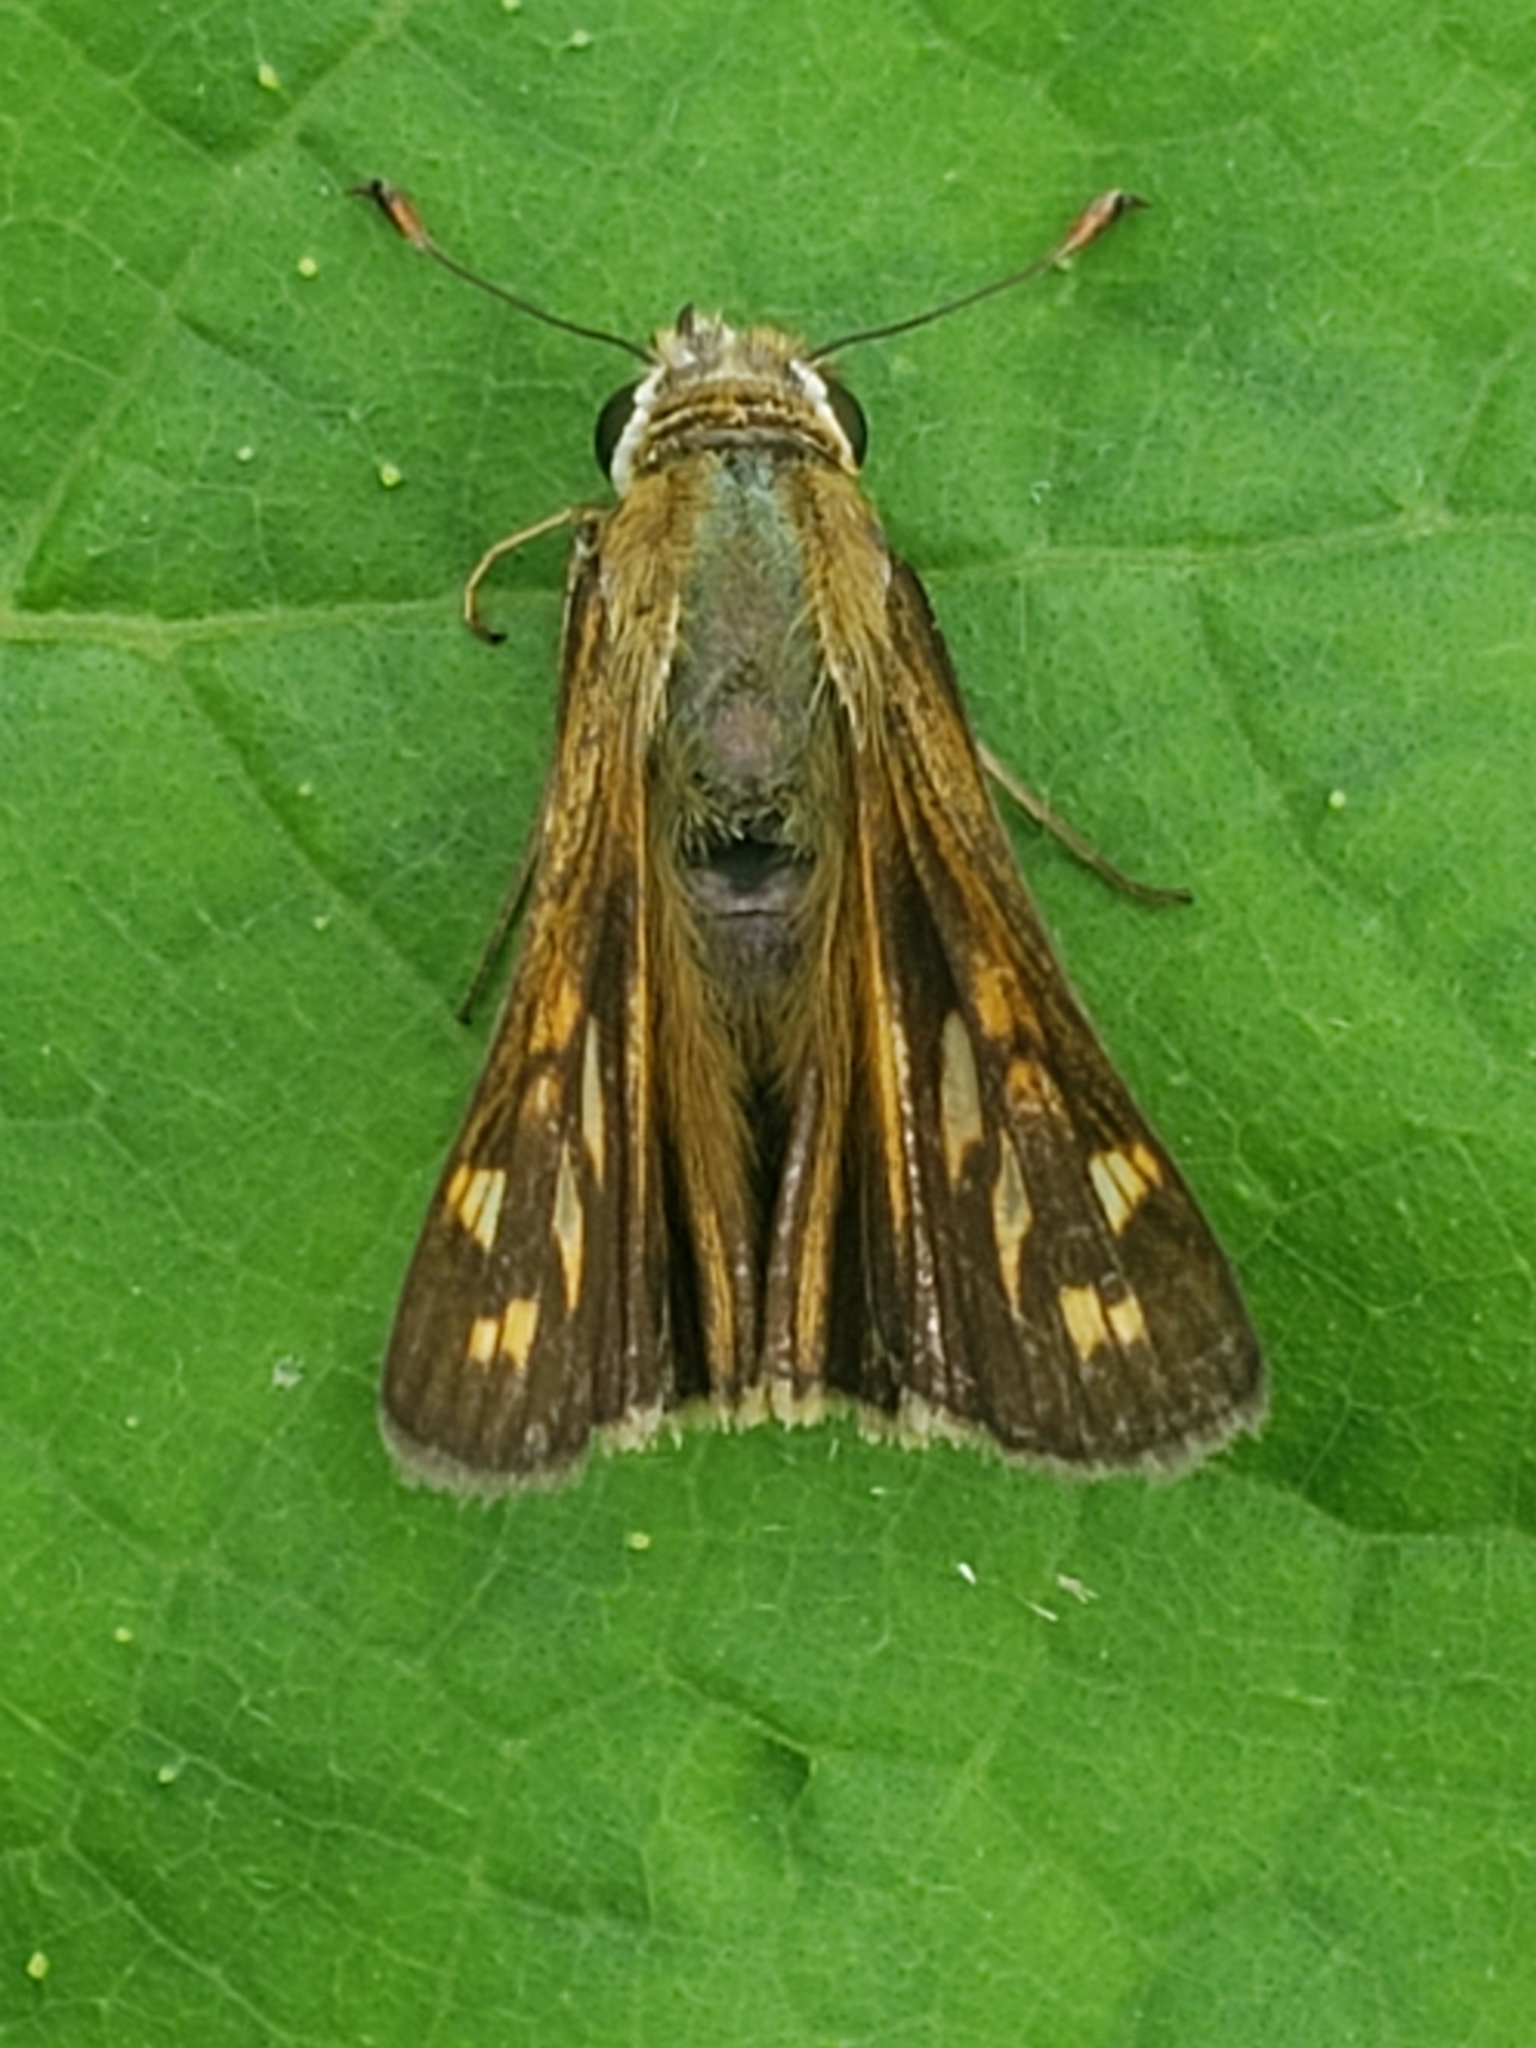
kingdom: Animalia
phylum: Arthropoda
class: Insecta
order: Lepidoptera
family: Hesperiidae
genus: Atalopedes
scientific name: Atalopedes
